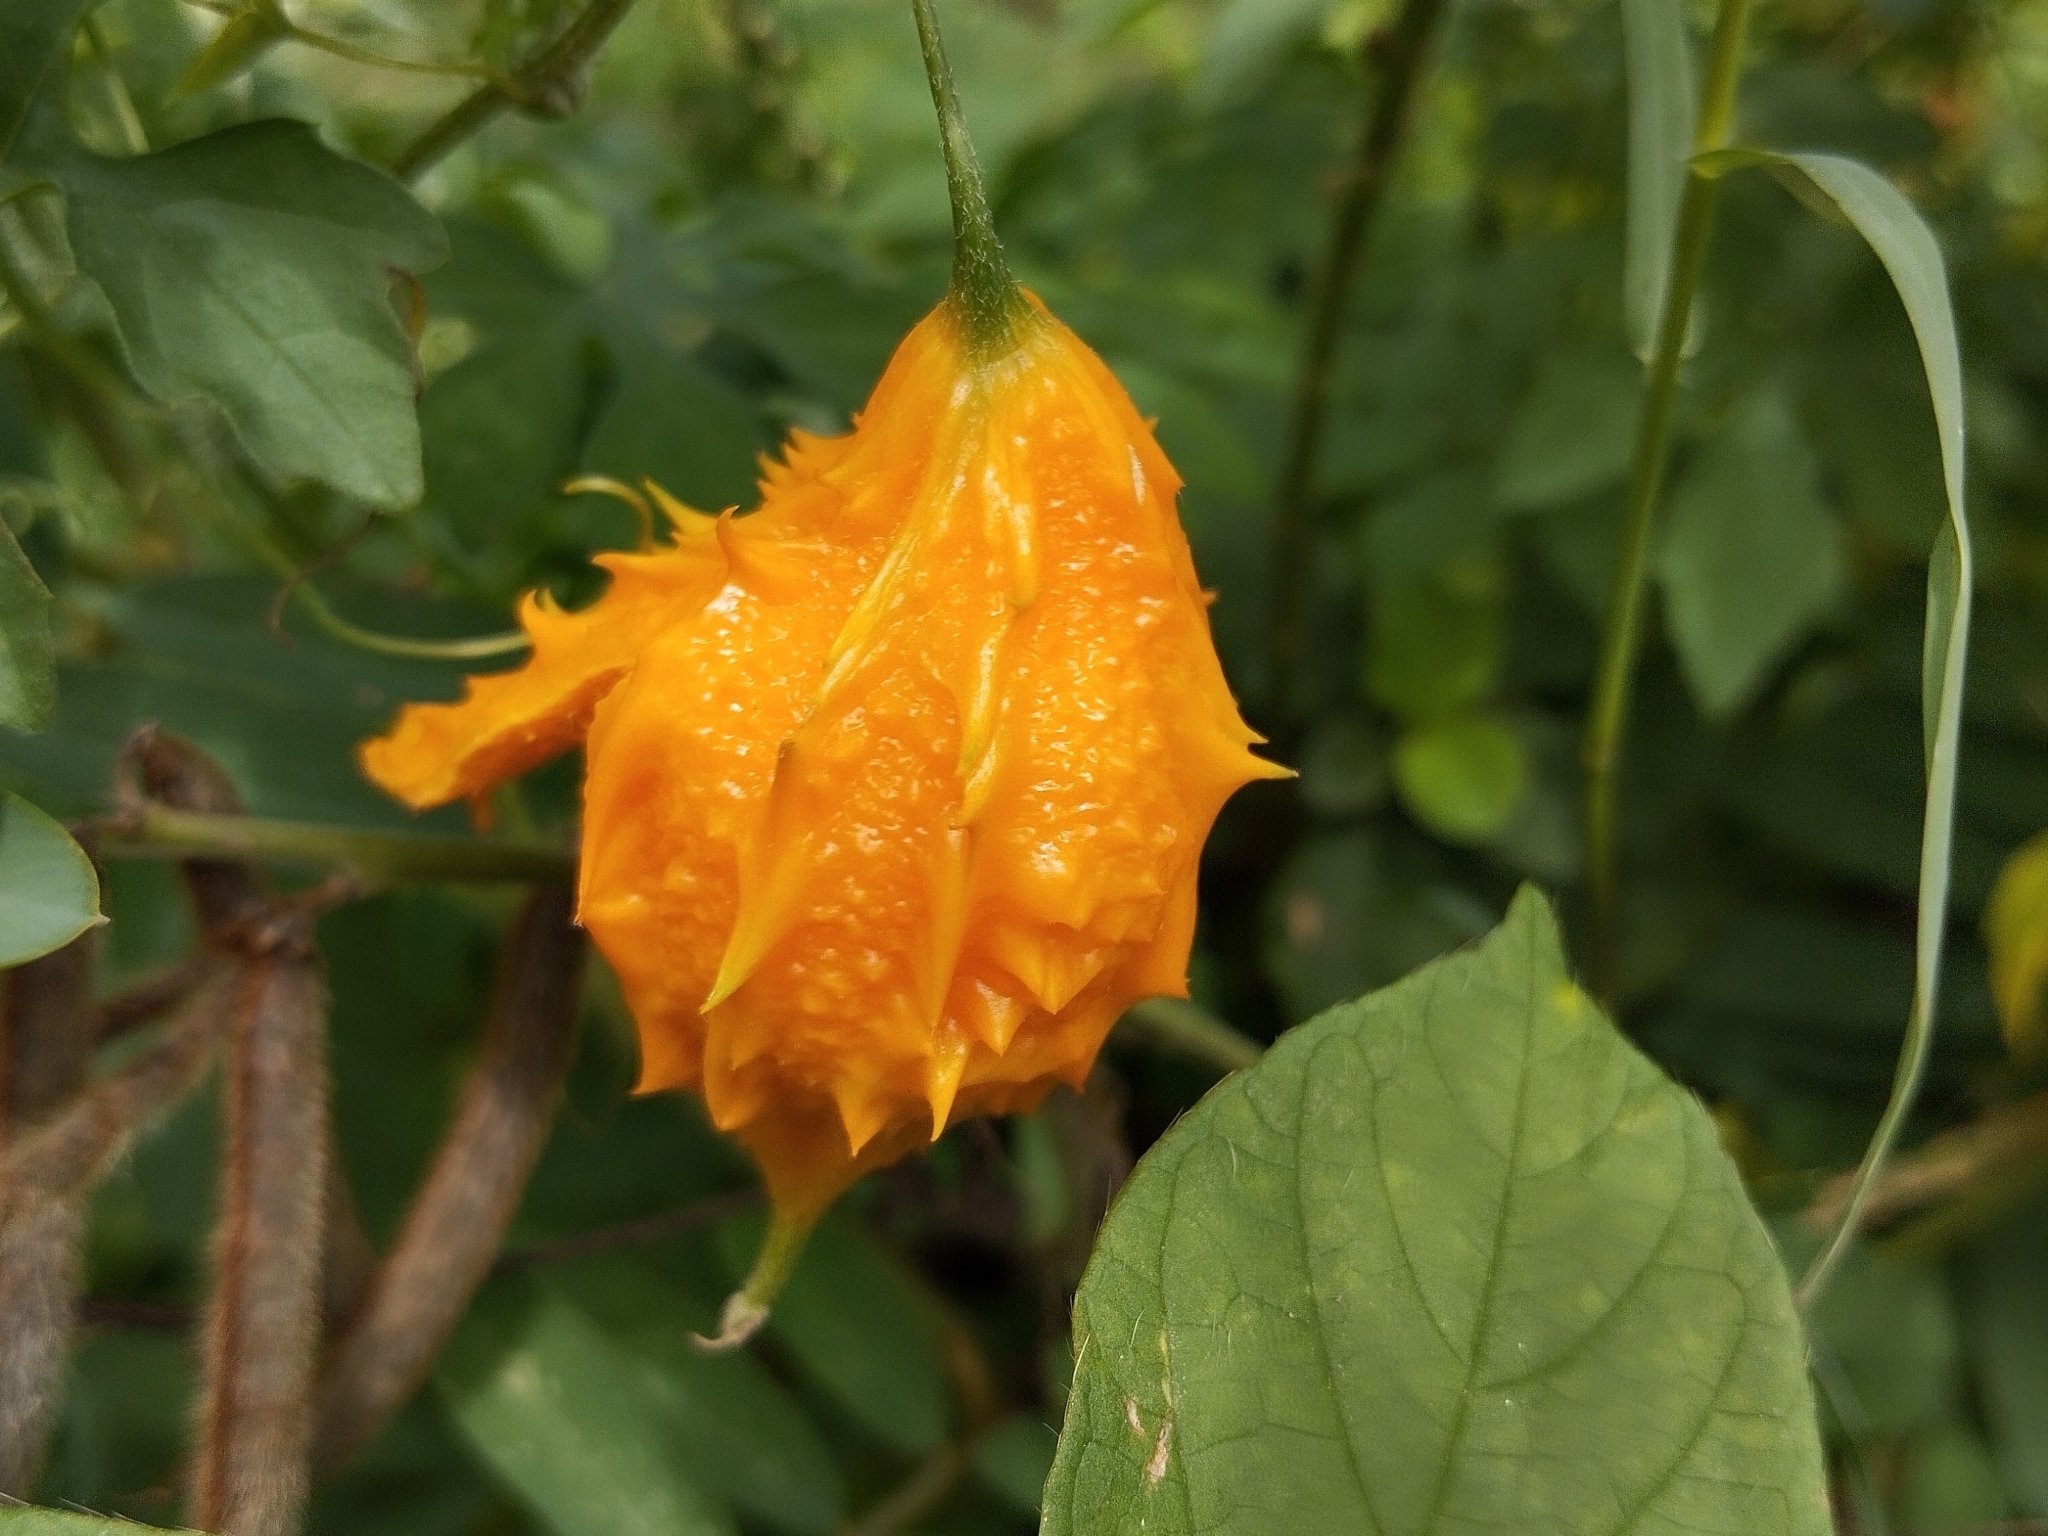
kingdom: Plantae
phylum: Tracheophyta
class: Magnoliopsida
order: Cucurbitales
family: Cucurbitaceae
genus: Momordica
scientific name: Momordica charantia
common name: Balsampear
